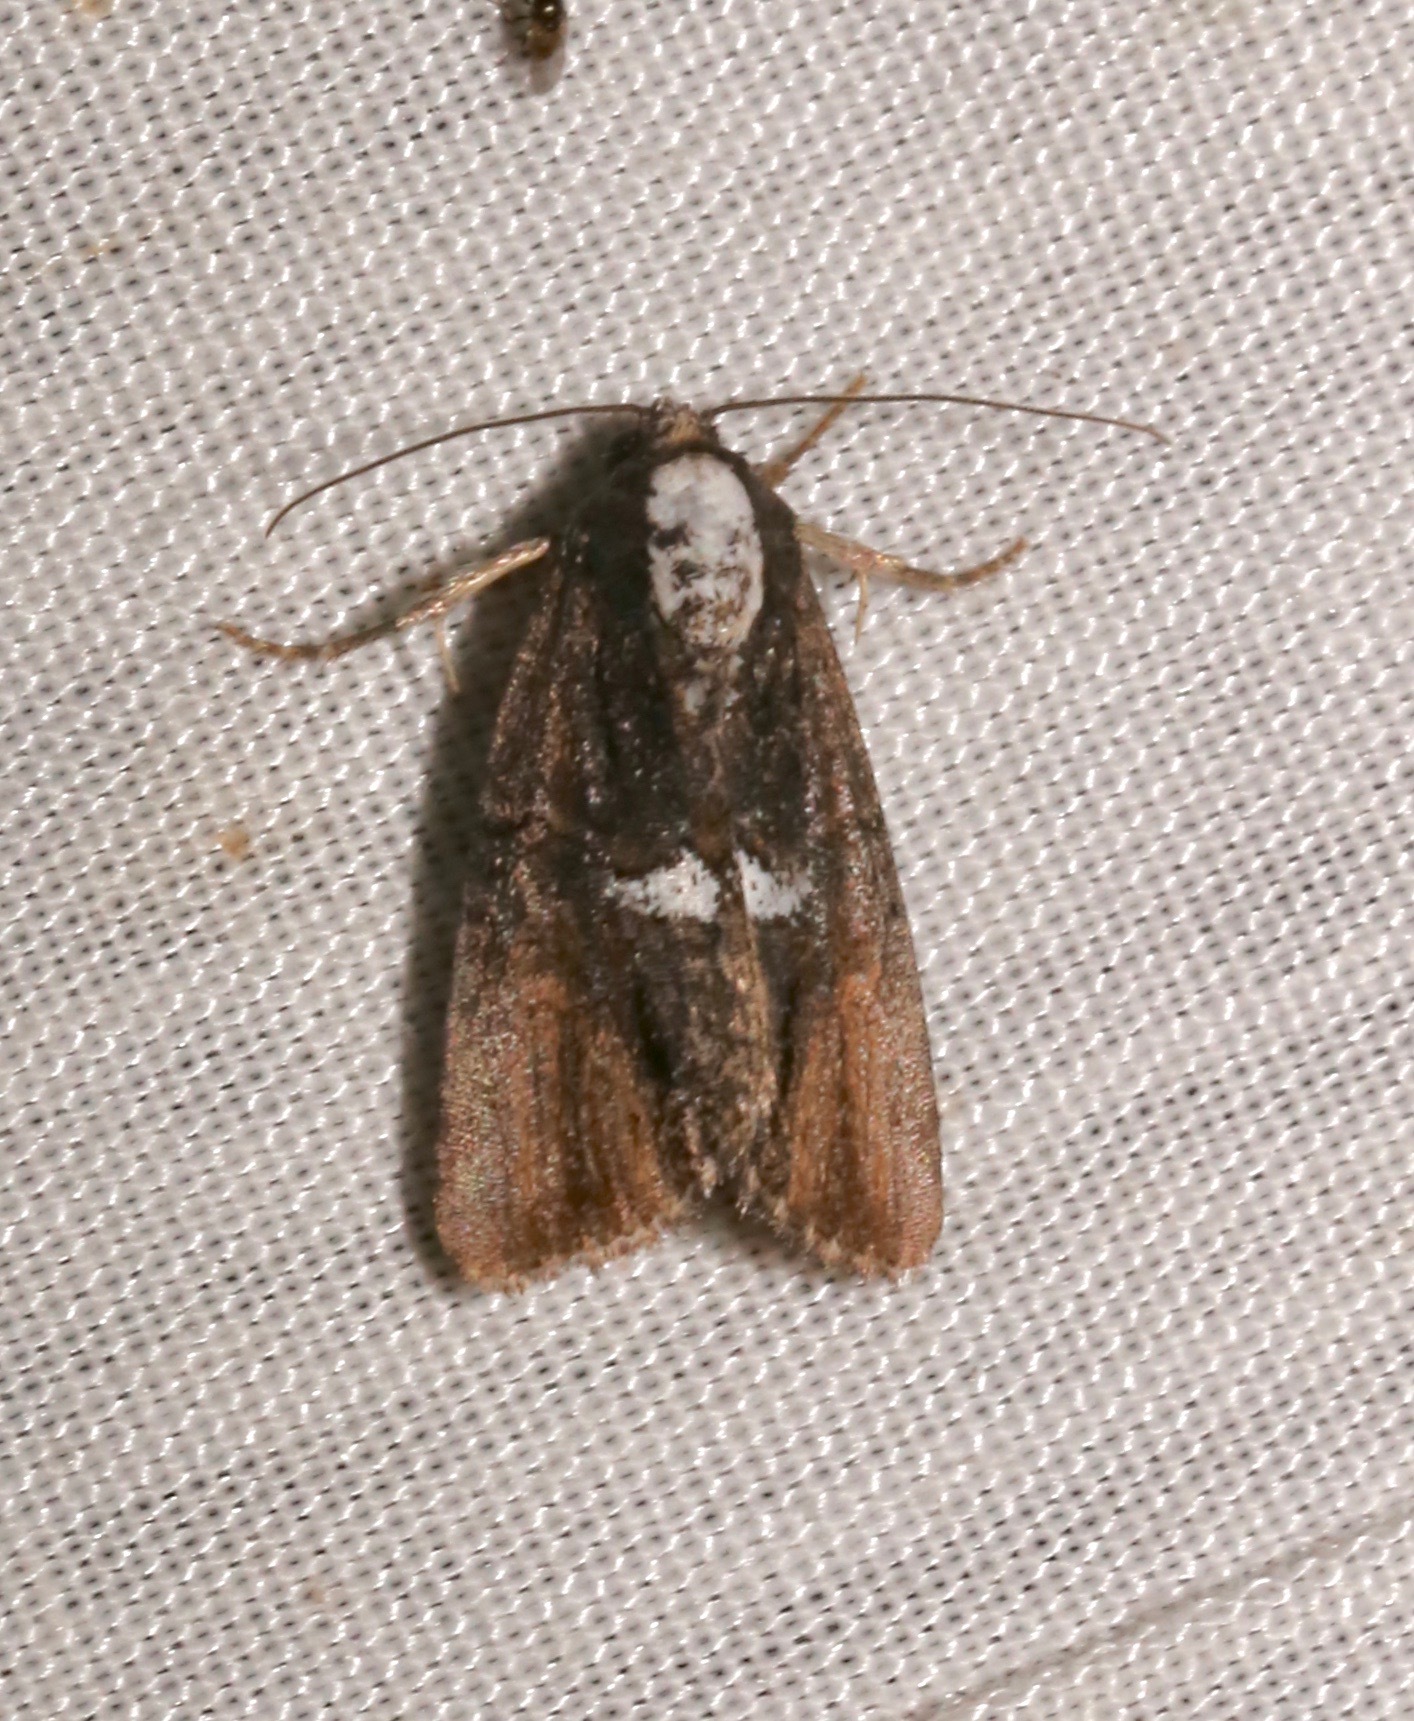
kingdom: Animalia
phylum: Arthropoda
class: Insecta
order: Lepidoptera
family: Noctuidae
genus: Bryolymnia
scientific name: Bryolymnia semifascia
